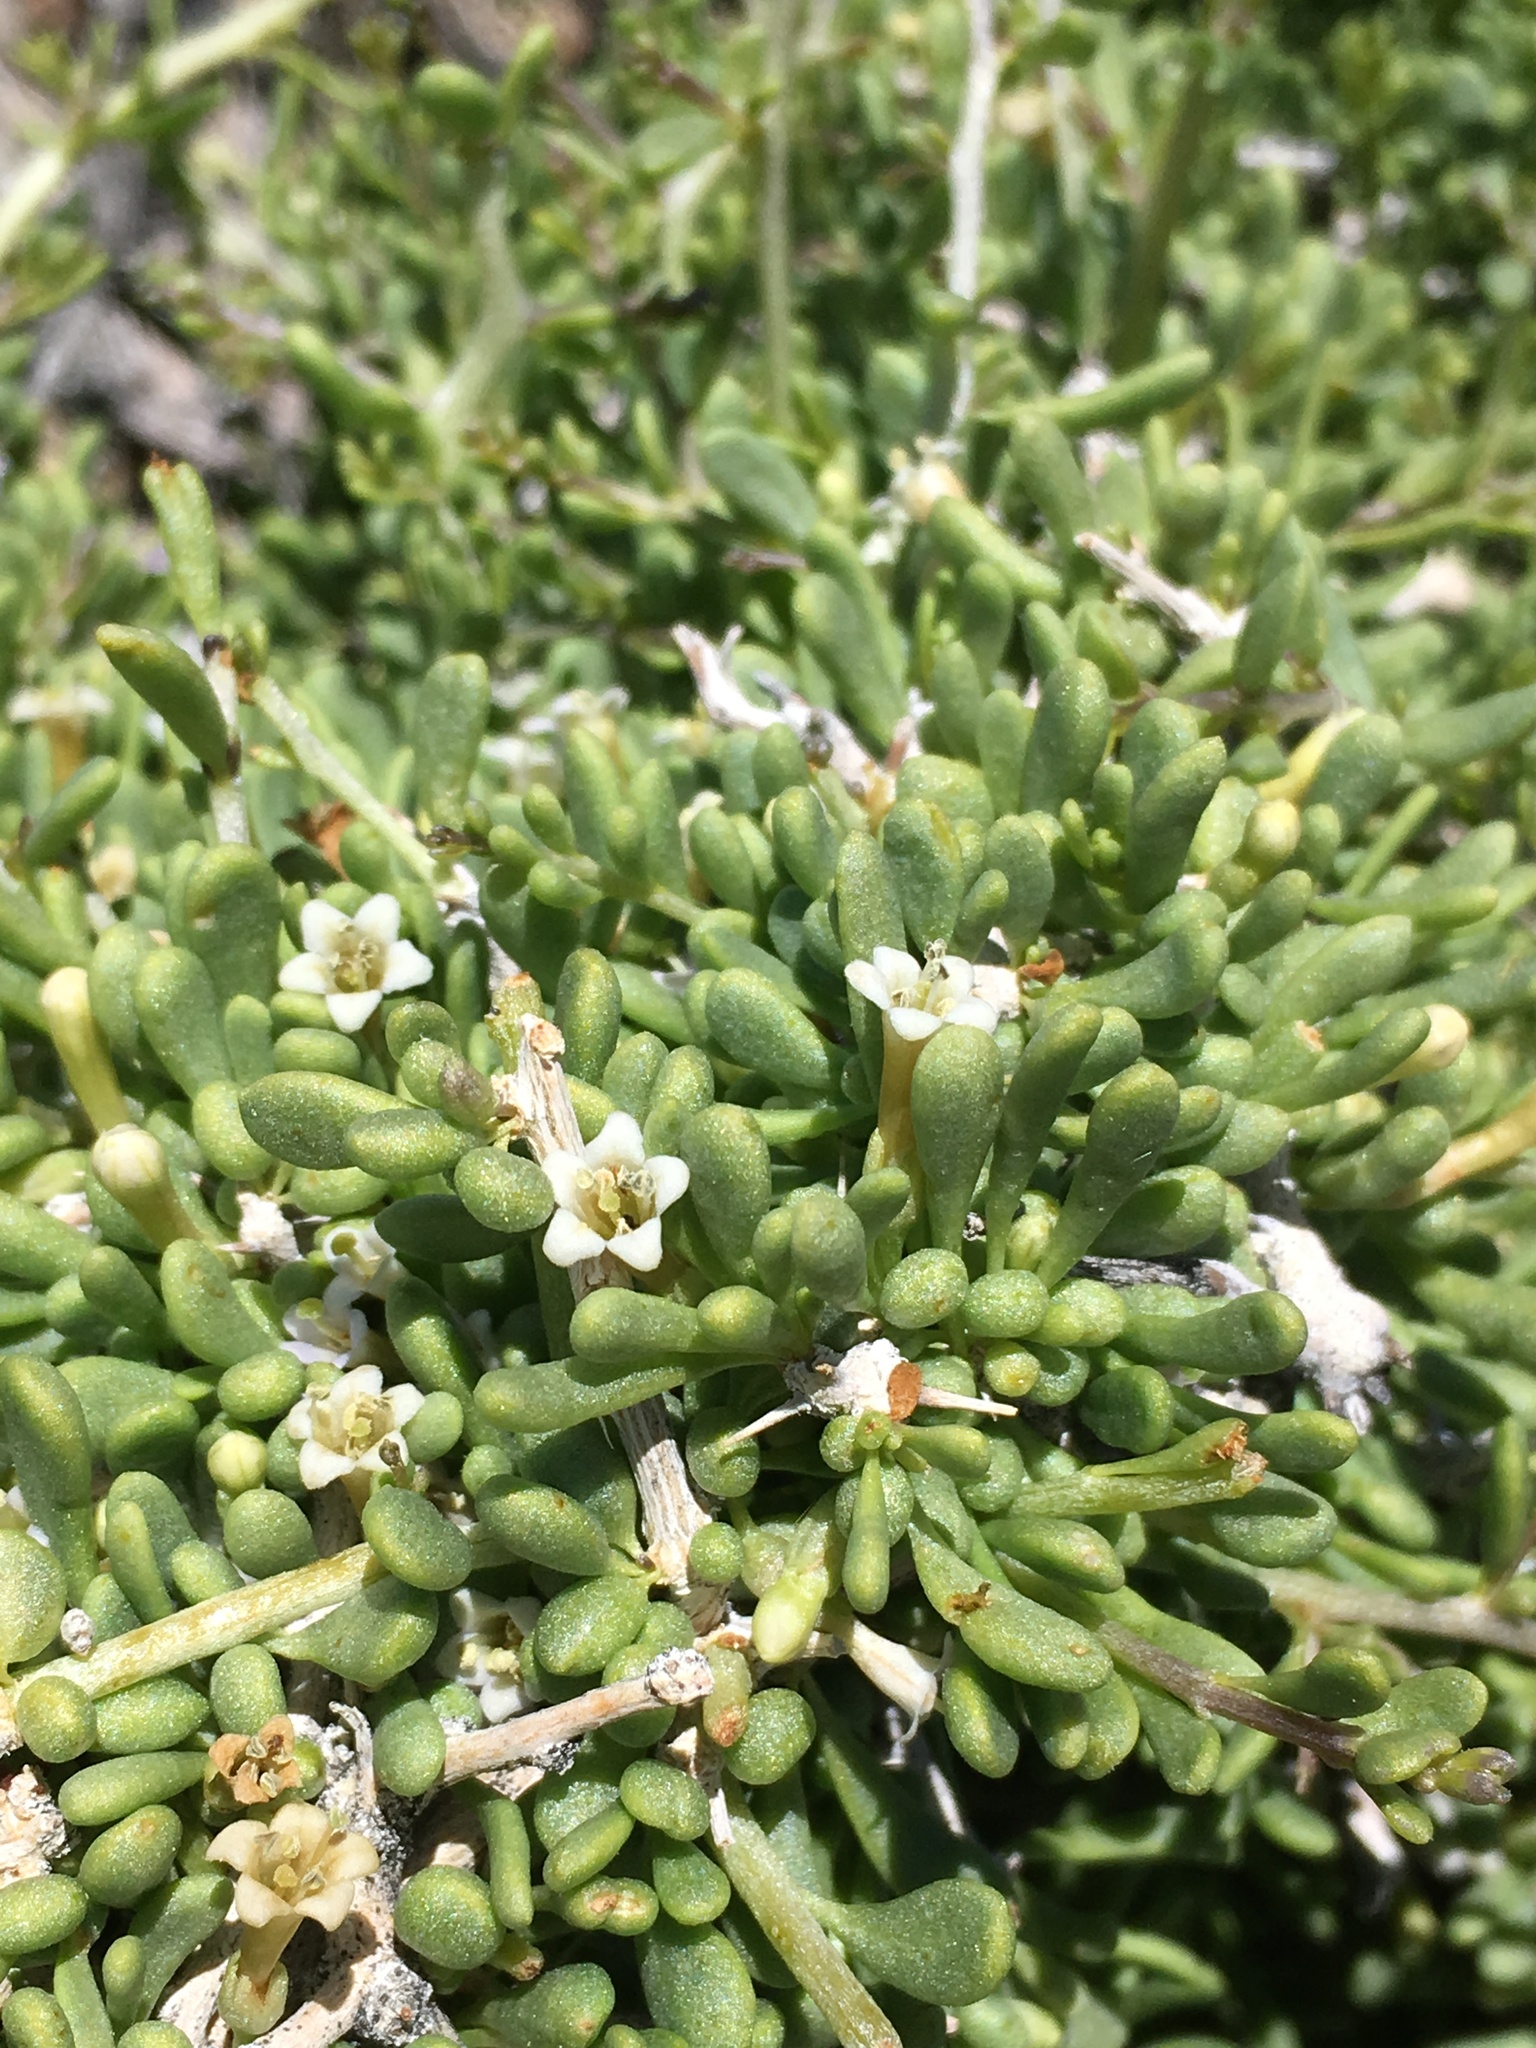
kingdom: Plantae
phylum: Tracheophyta
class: Magnoliopsida
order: Solanales
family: Solanaceae
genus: Lycium
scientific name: Lycium andersonii
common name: Water-jacket
